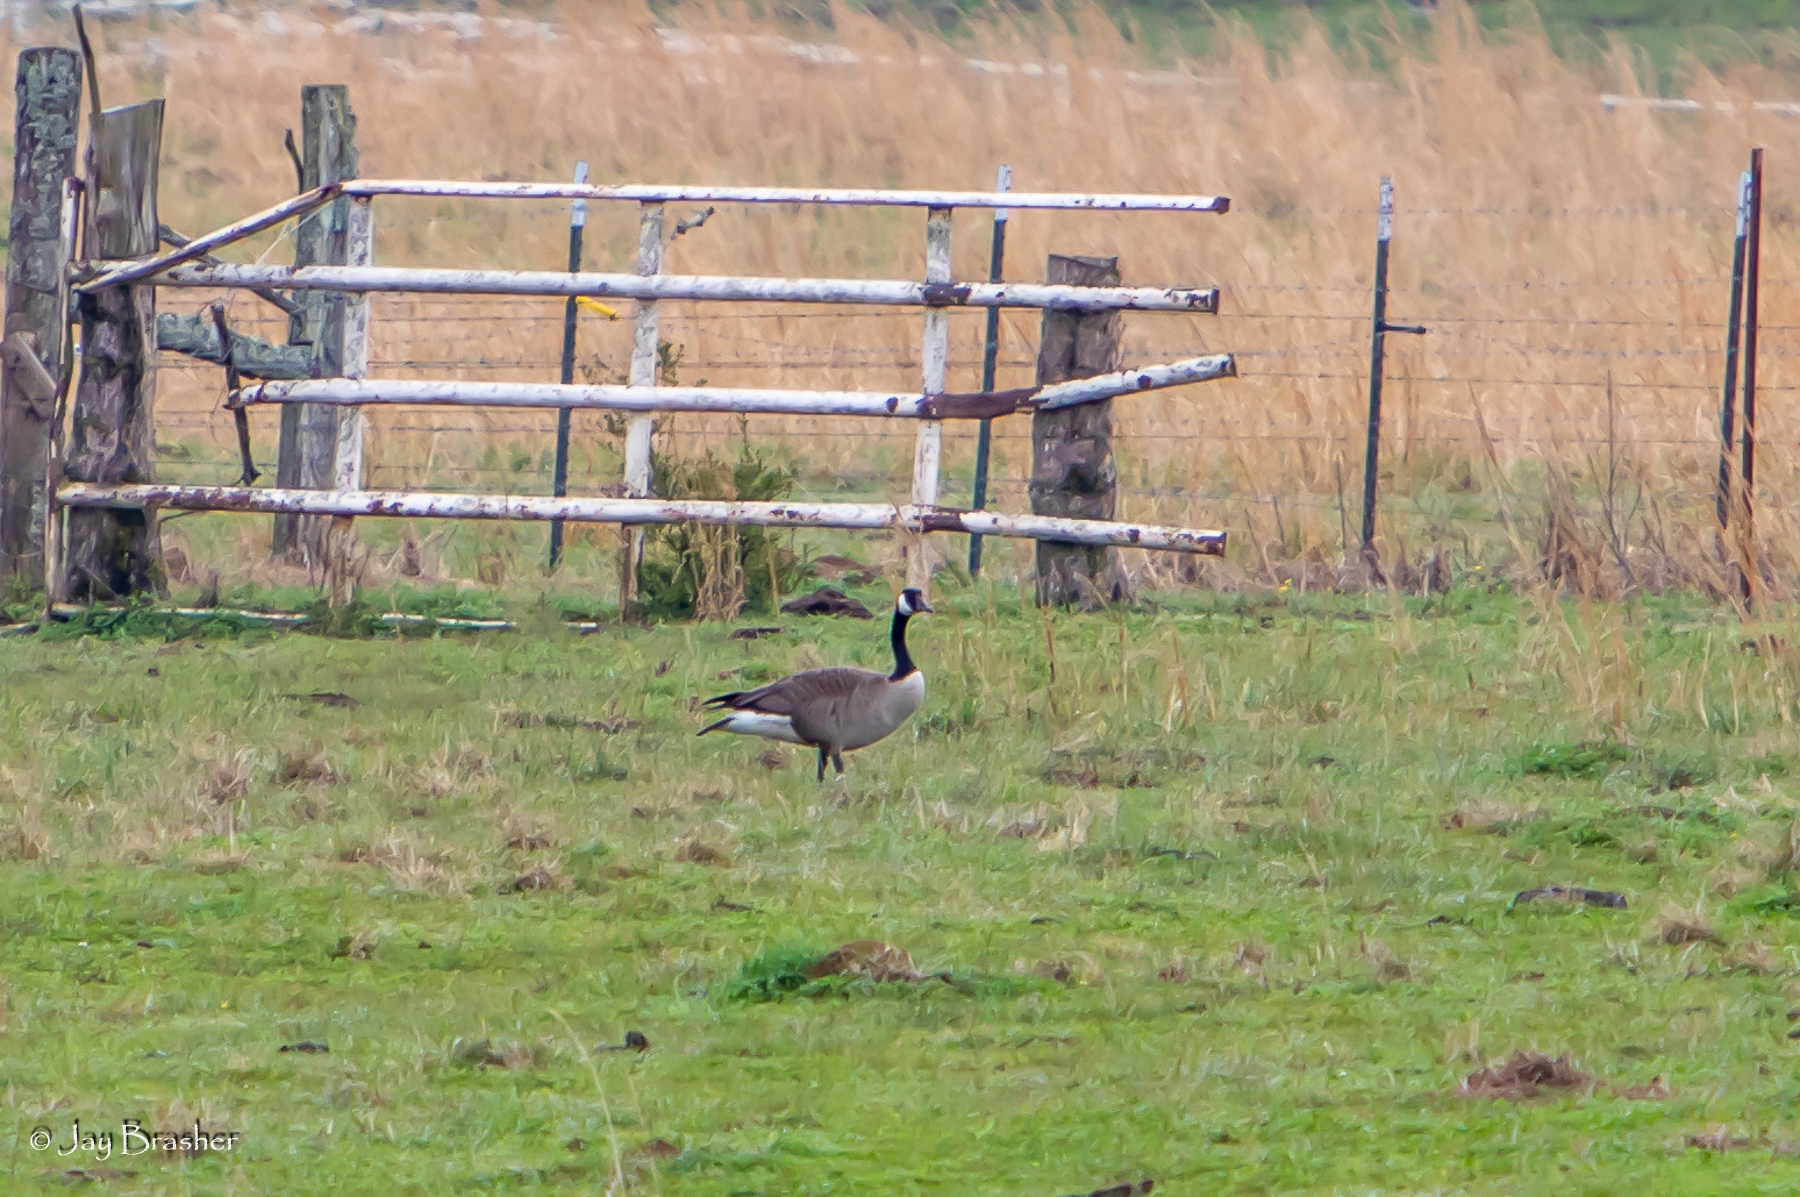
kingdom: Animalia
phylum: Chordata
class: Aves
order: Anseriformes
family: Anatidae
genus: Branta
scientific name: Branta canadensis
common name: Canada goose
